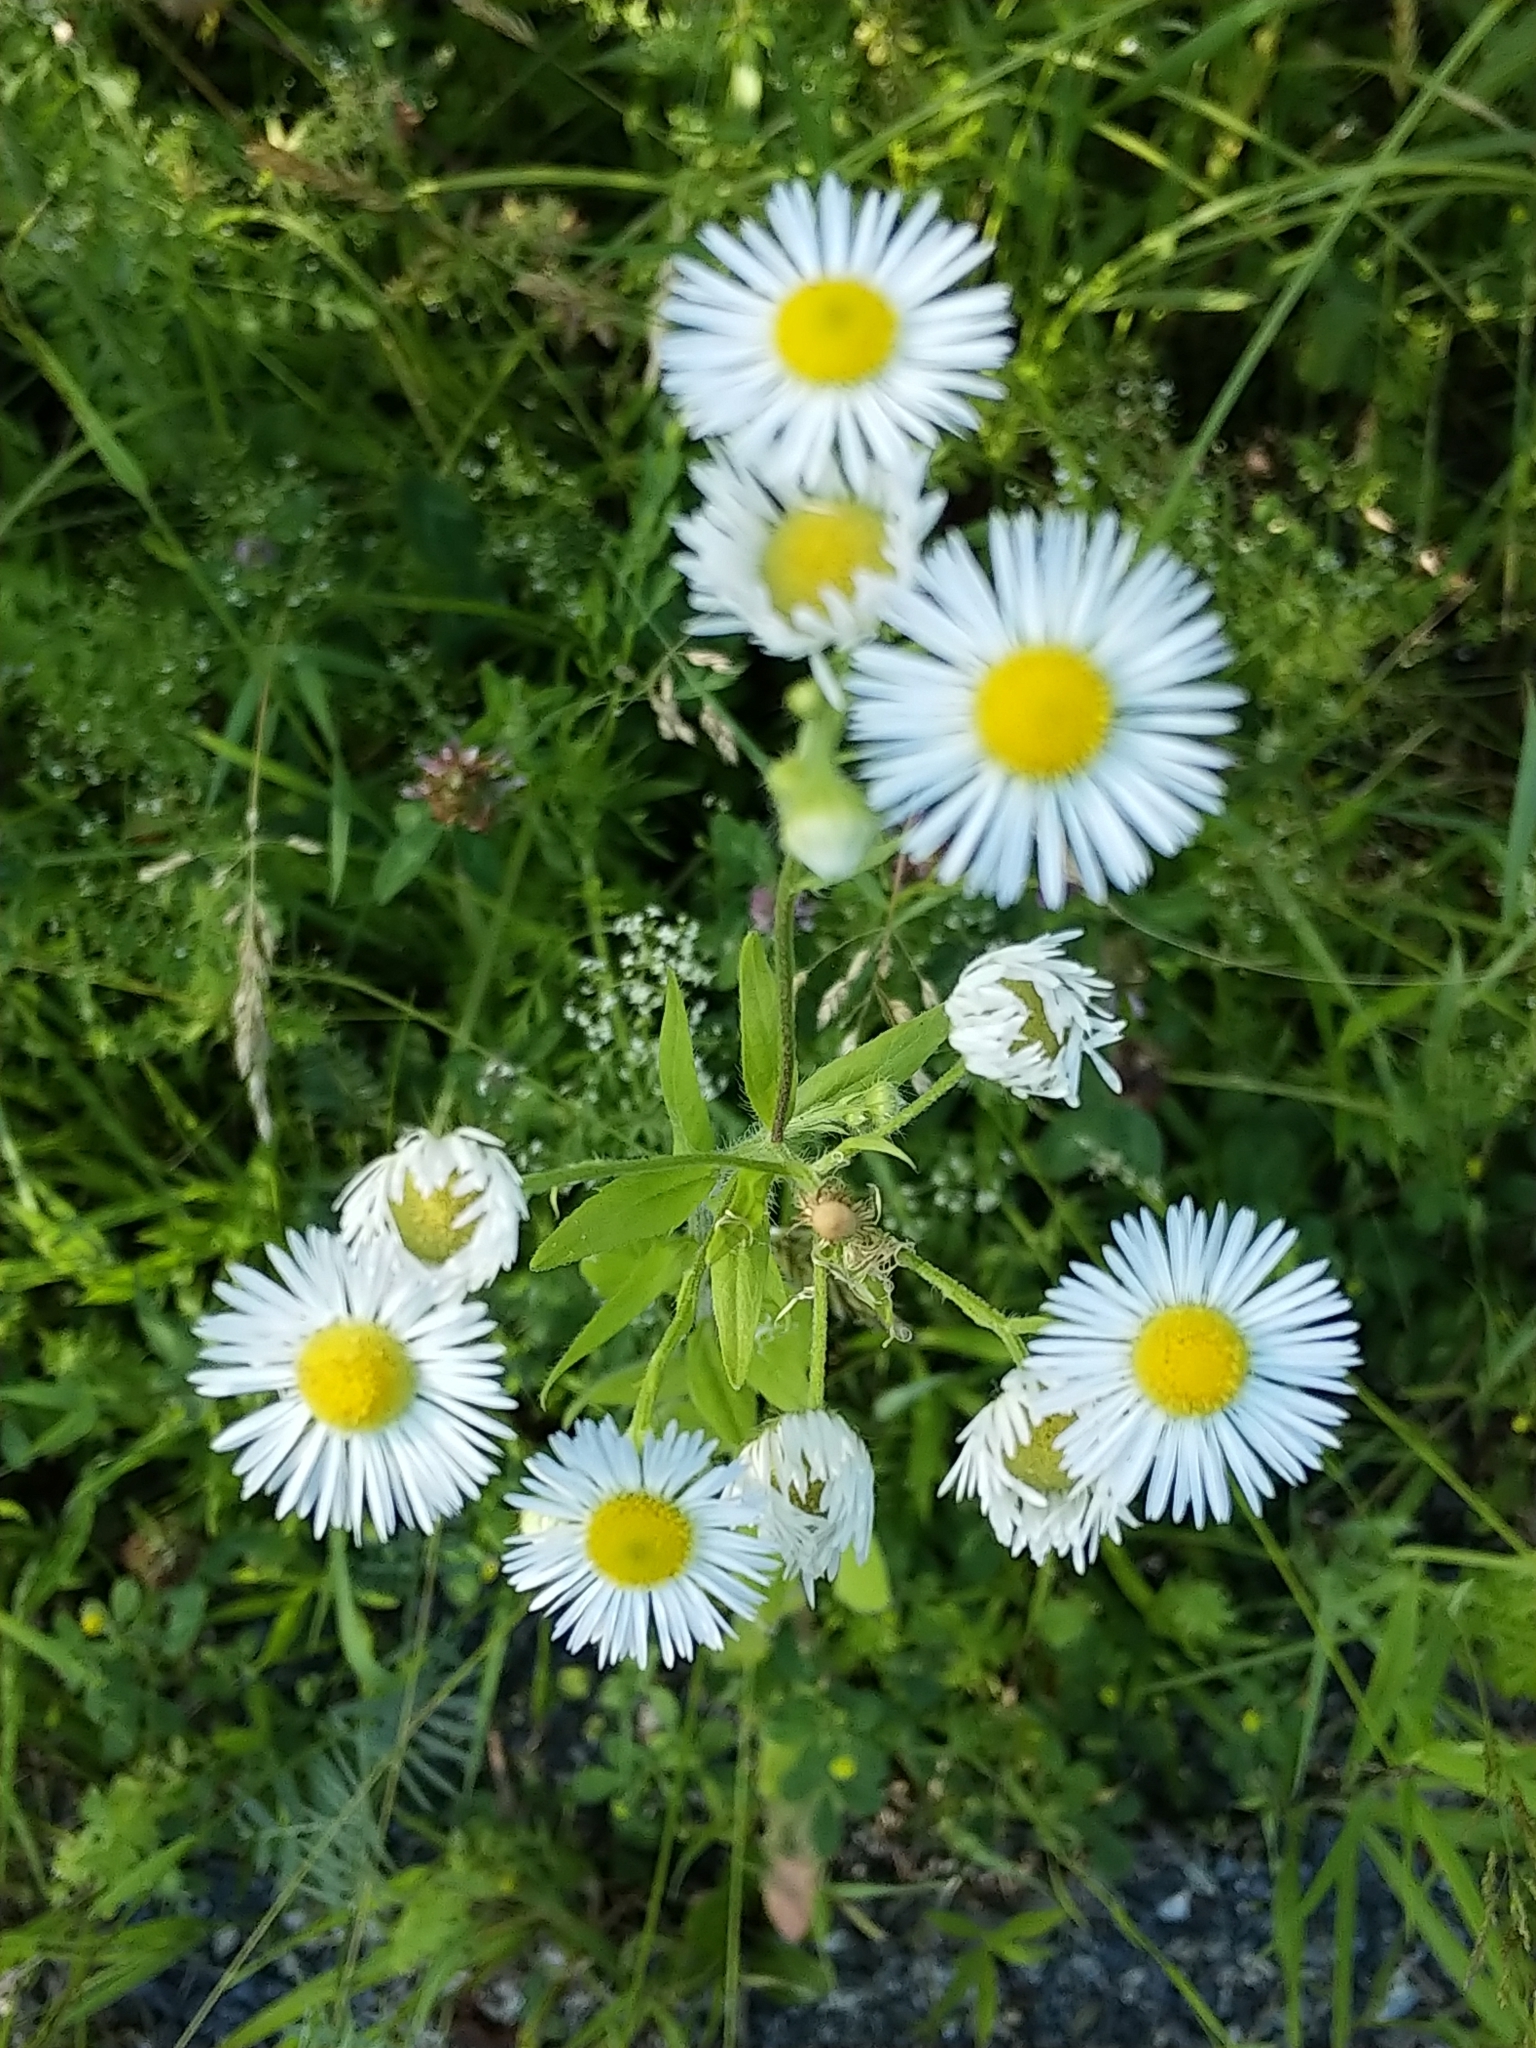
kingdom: Plantae
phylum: Tracheophyta
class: Magnoliopsida
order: Asterales
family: Asteraceae
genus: Erigeron
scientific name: Erigeron strigosus
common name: Common eastern fleabane
